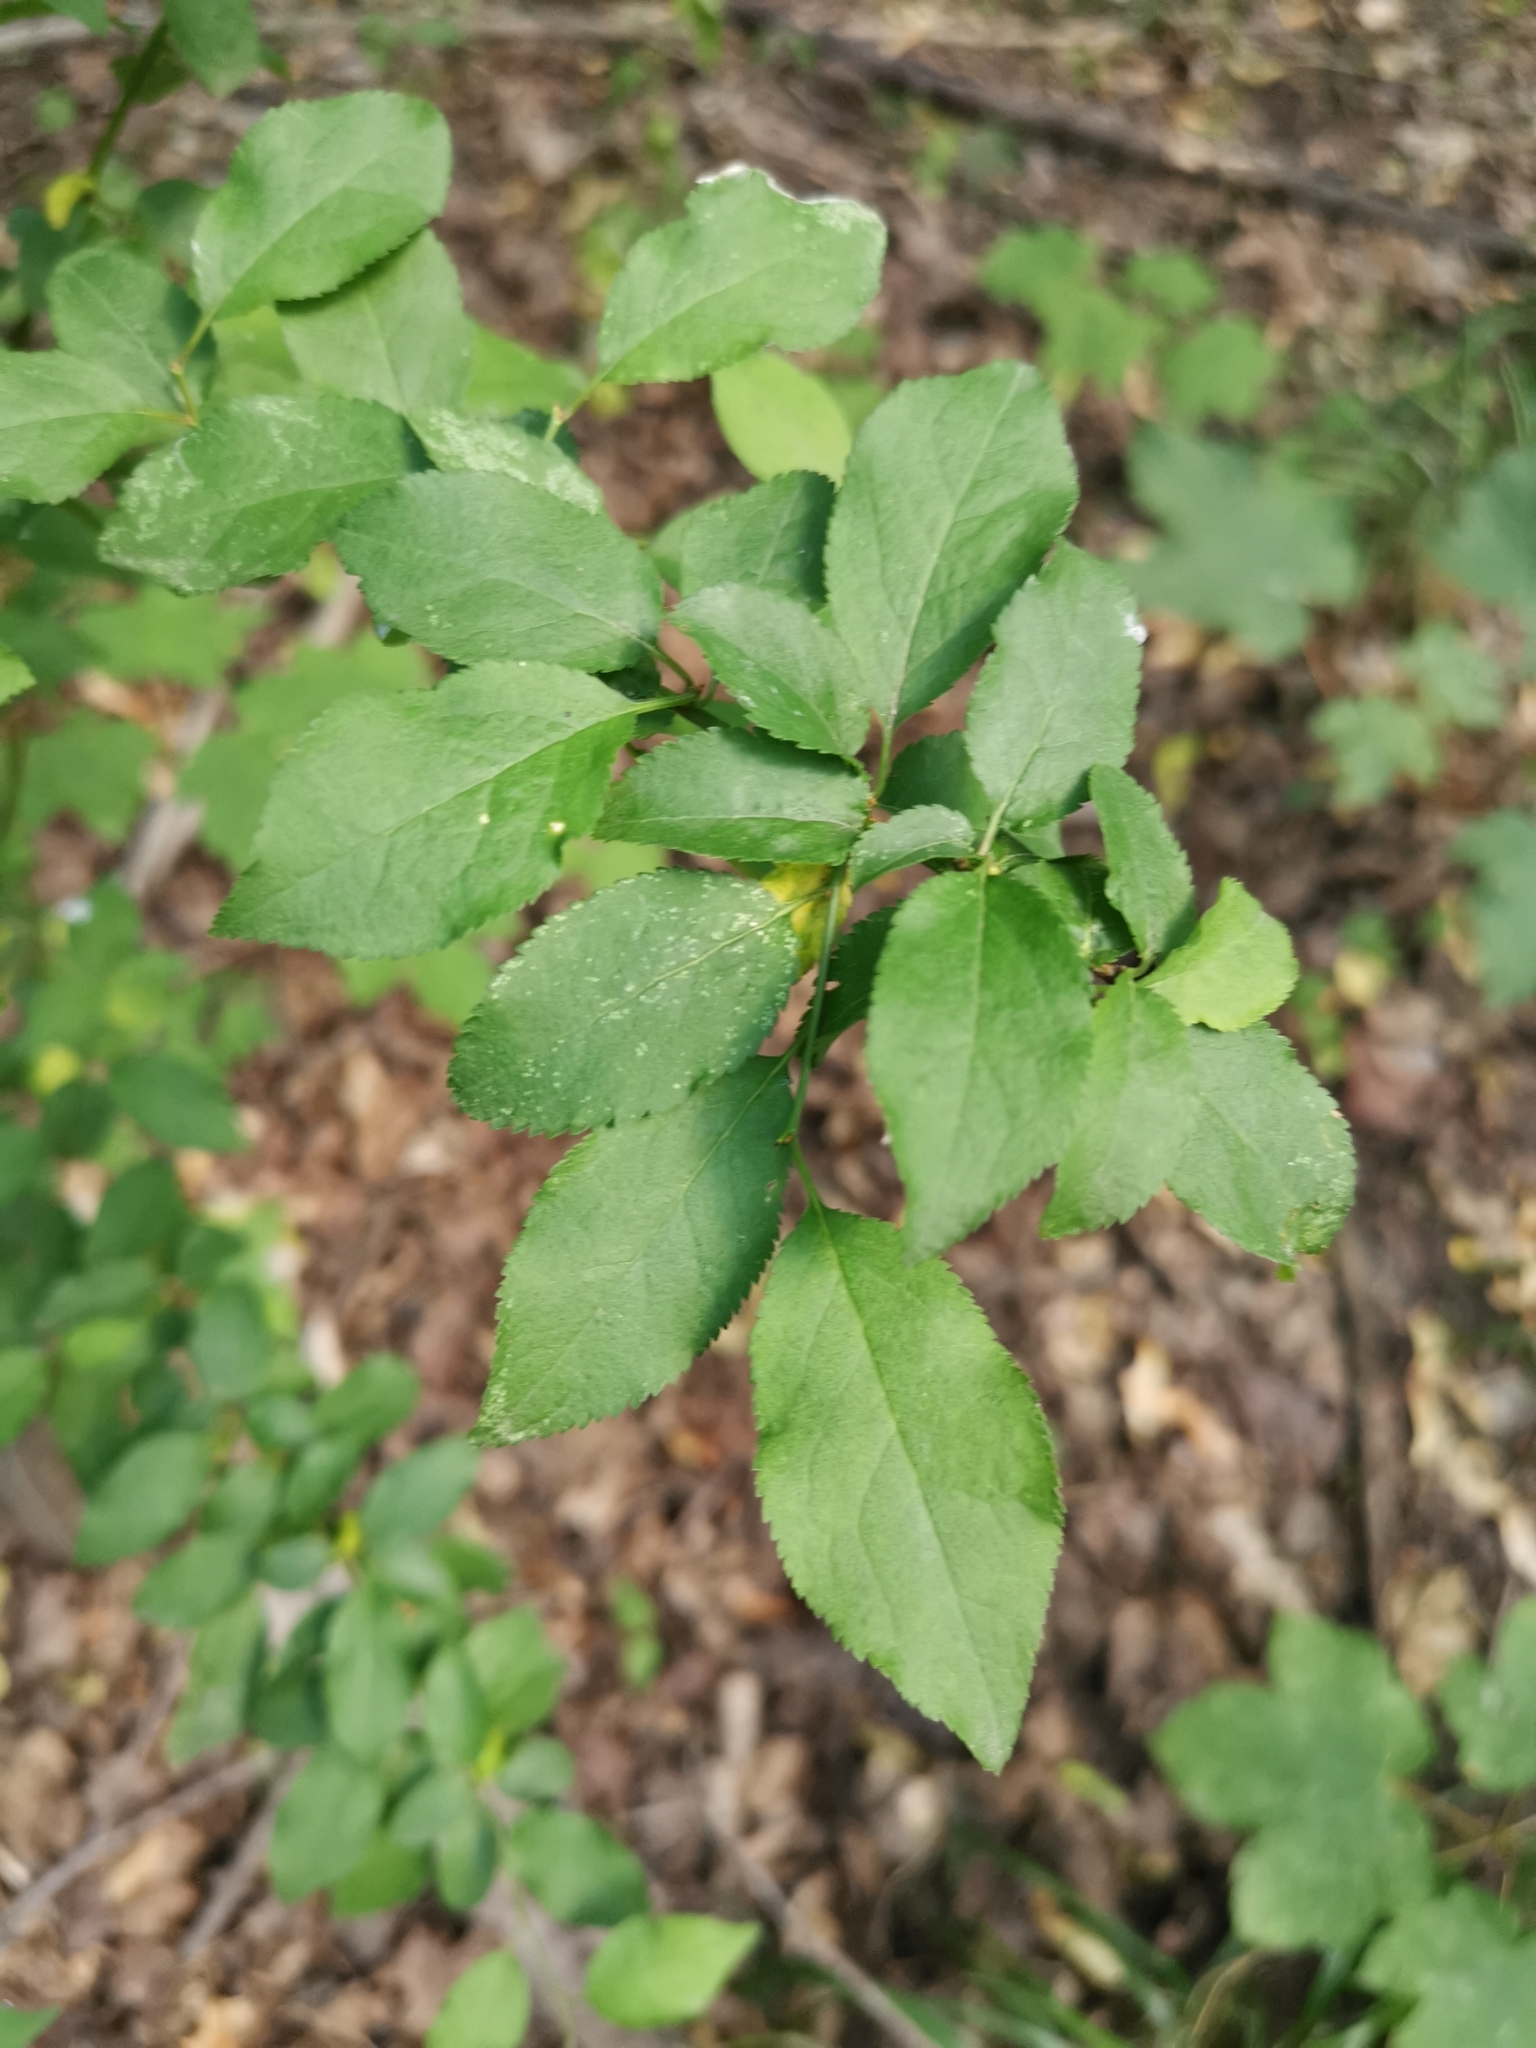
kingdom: Plantae
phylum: Tracheophyta
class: Magnoliopsida
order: Rosales
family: Rosaceae
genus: Prunus
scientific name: Prunus cerasifera
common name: Cherry plum
